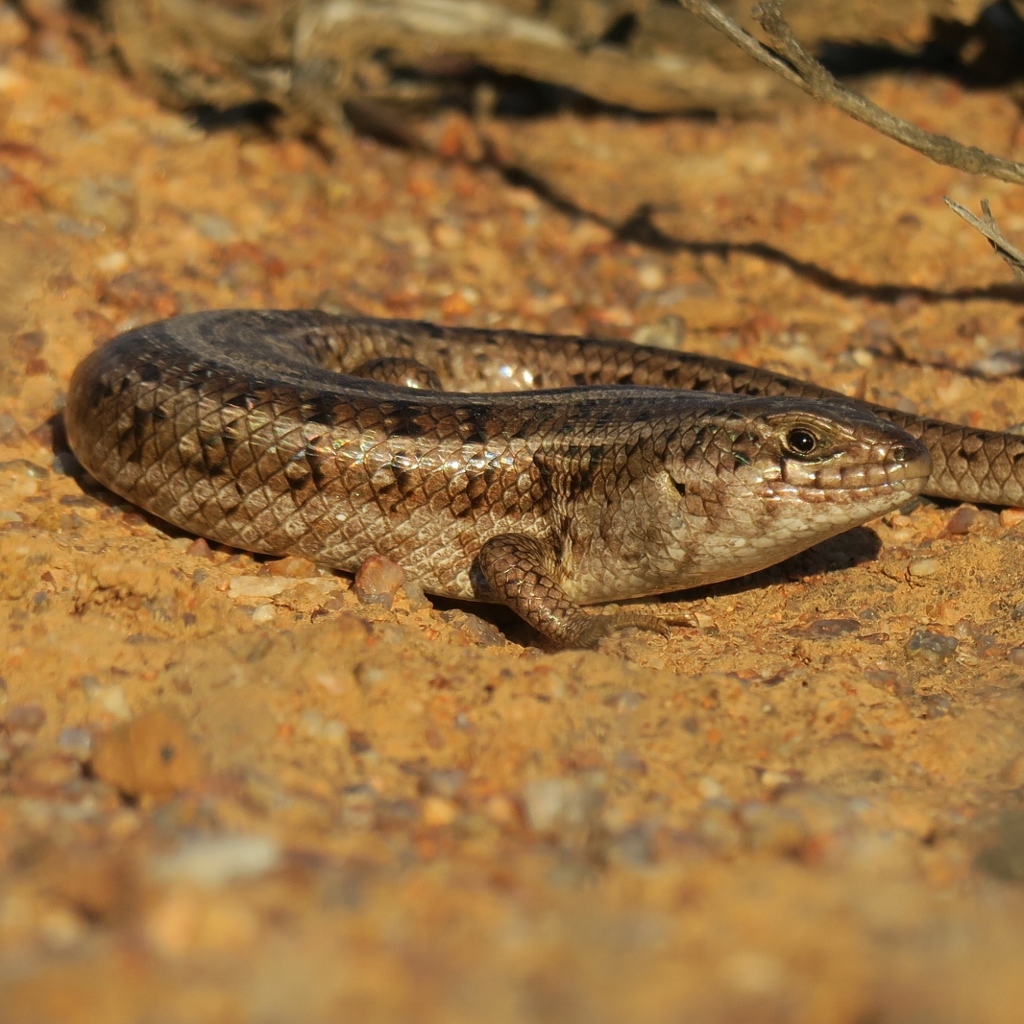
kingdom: Animalia
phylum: Chordata
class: Squamata
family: Scincidae
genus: Trachylepis
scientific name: Trachylepis capensis
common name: Cape skink
